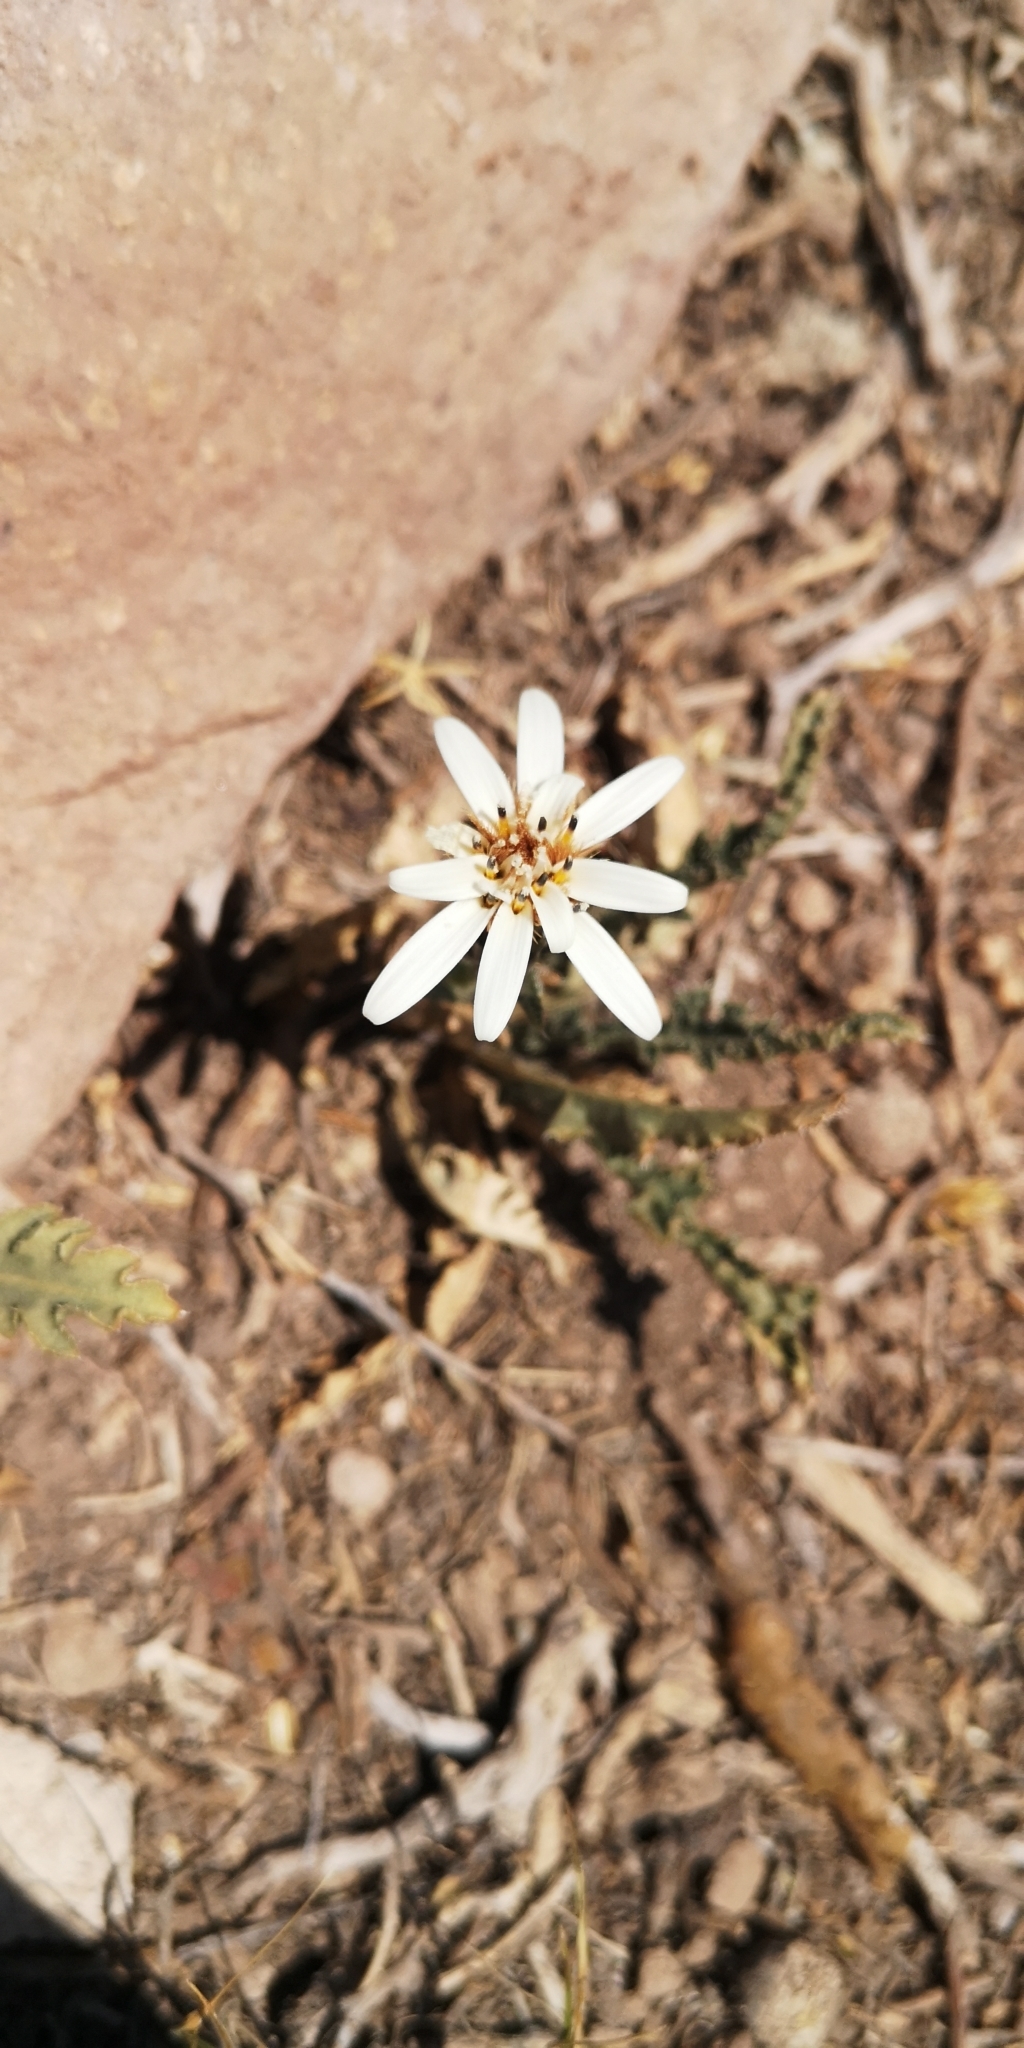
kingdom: Plantae
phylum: Tracheophyta
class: Magnoliopsida
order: Asterales
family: Asteraceae
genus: Perezia
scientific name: Perezia carthamoides
